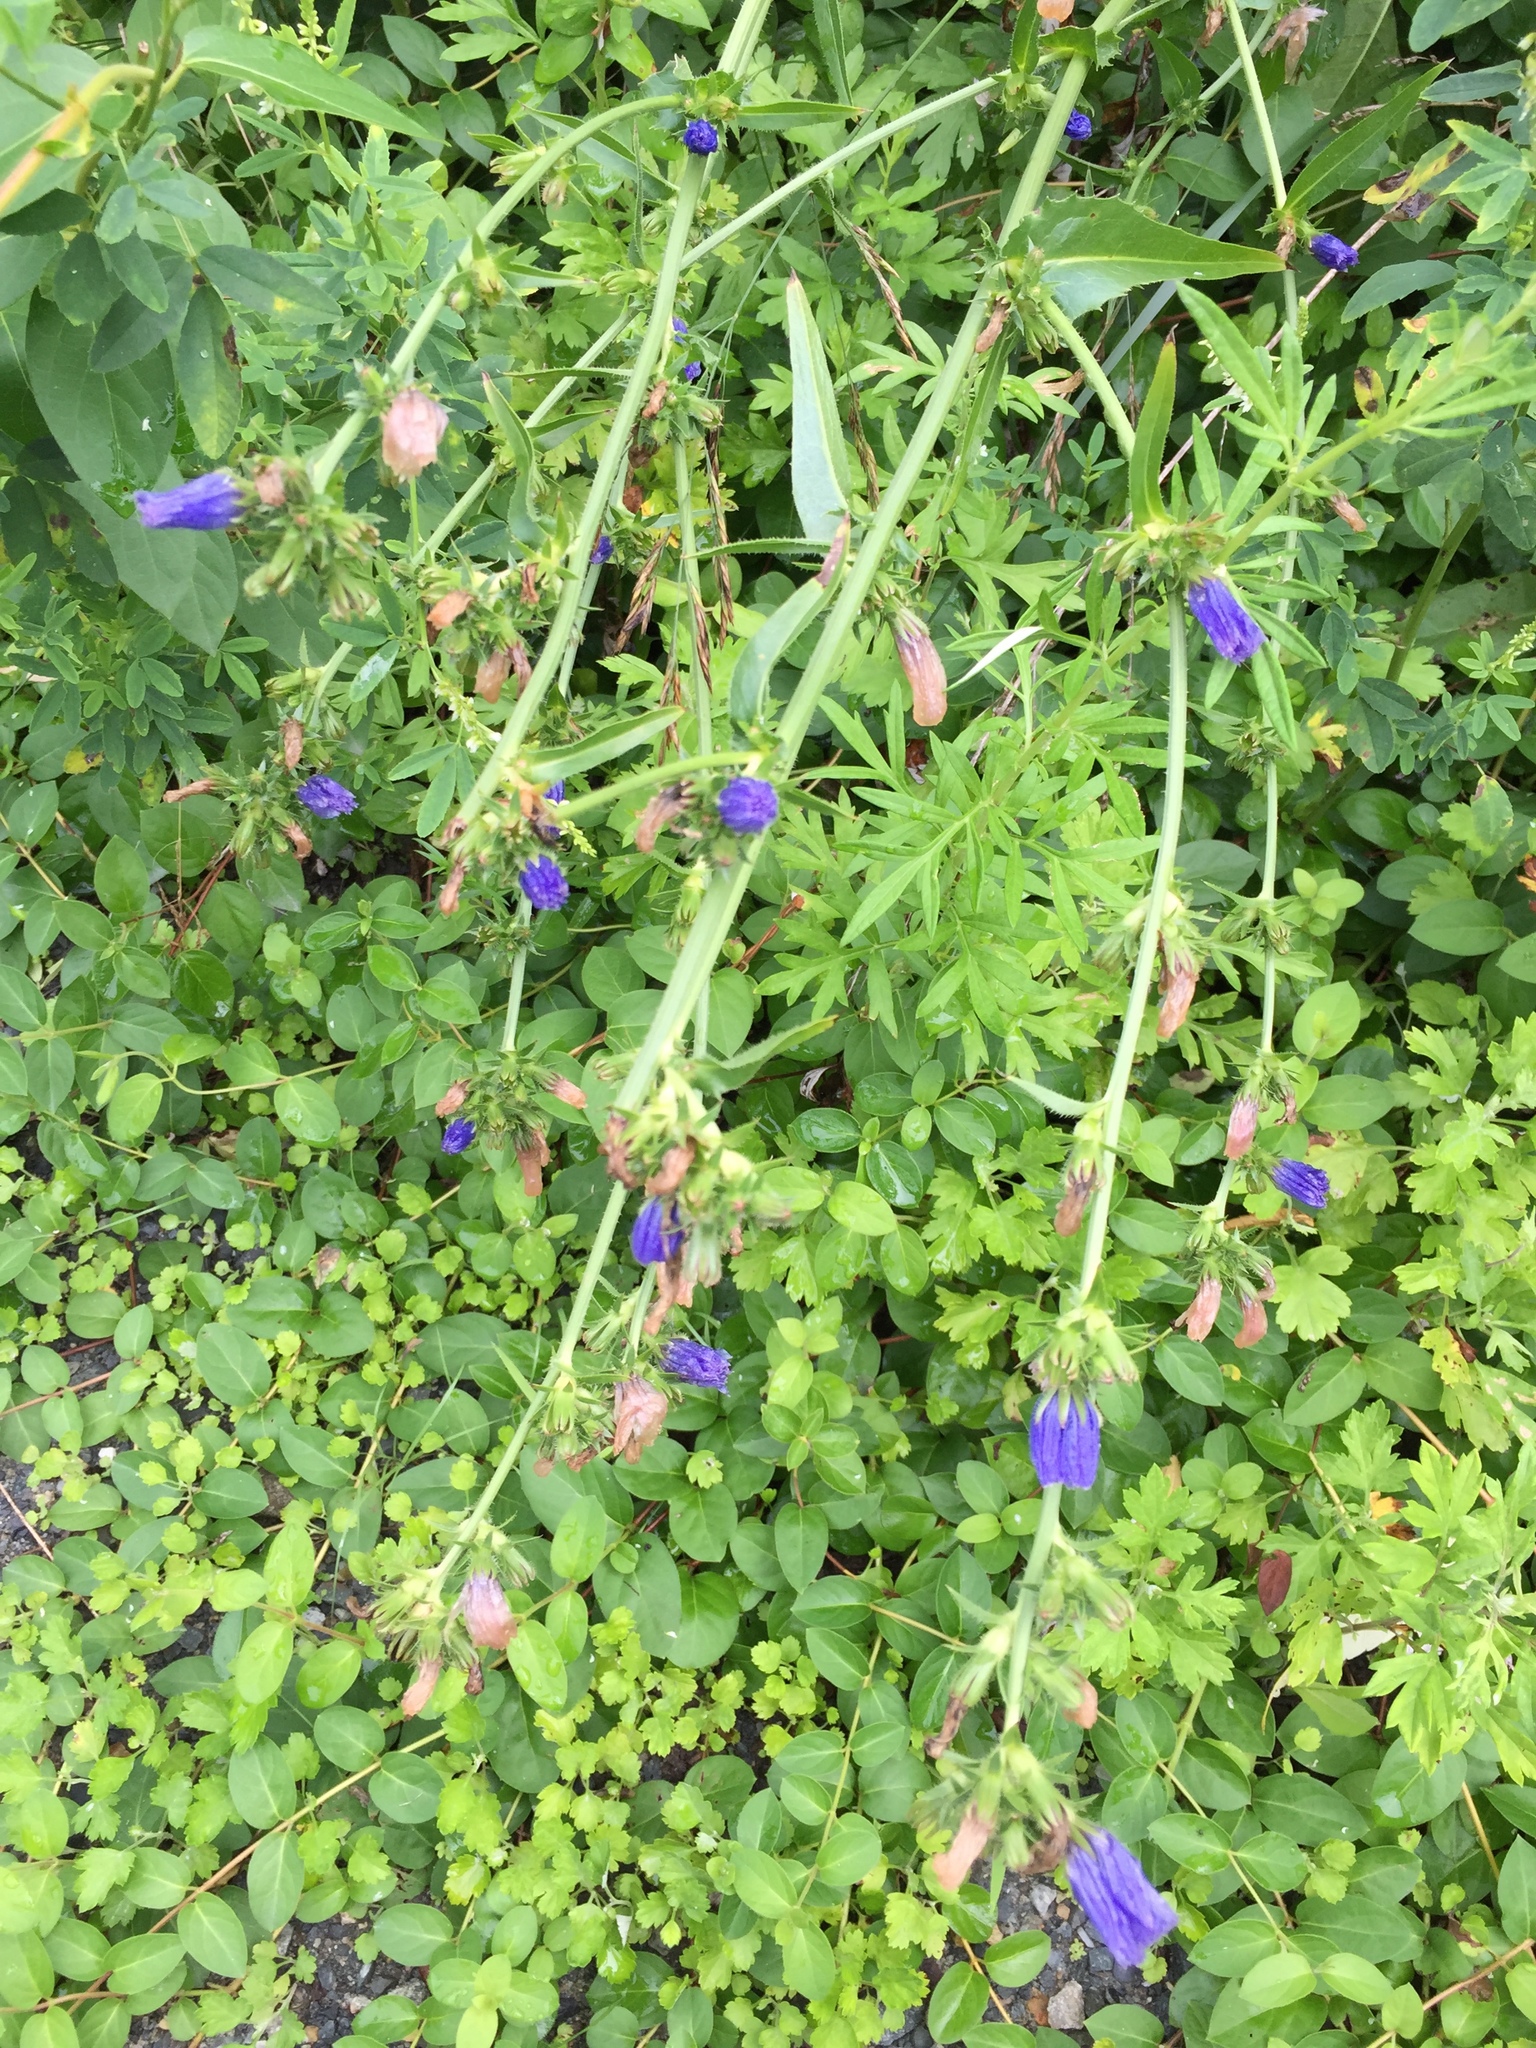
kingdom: Plantae
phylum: Tracheophyta
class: Magnoliopsida
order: Asterales
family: Asteraceae
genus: Cichorium
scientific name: Cichorium intybus
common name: Chicory
